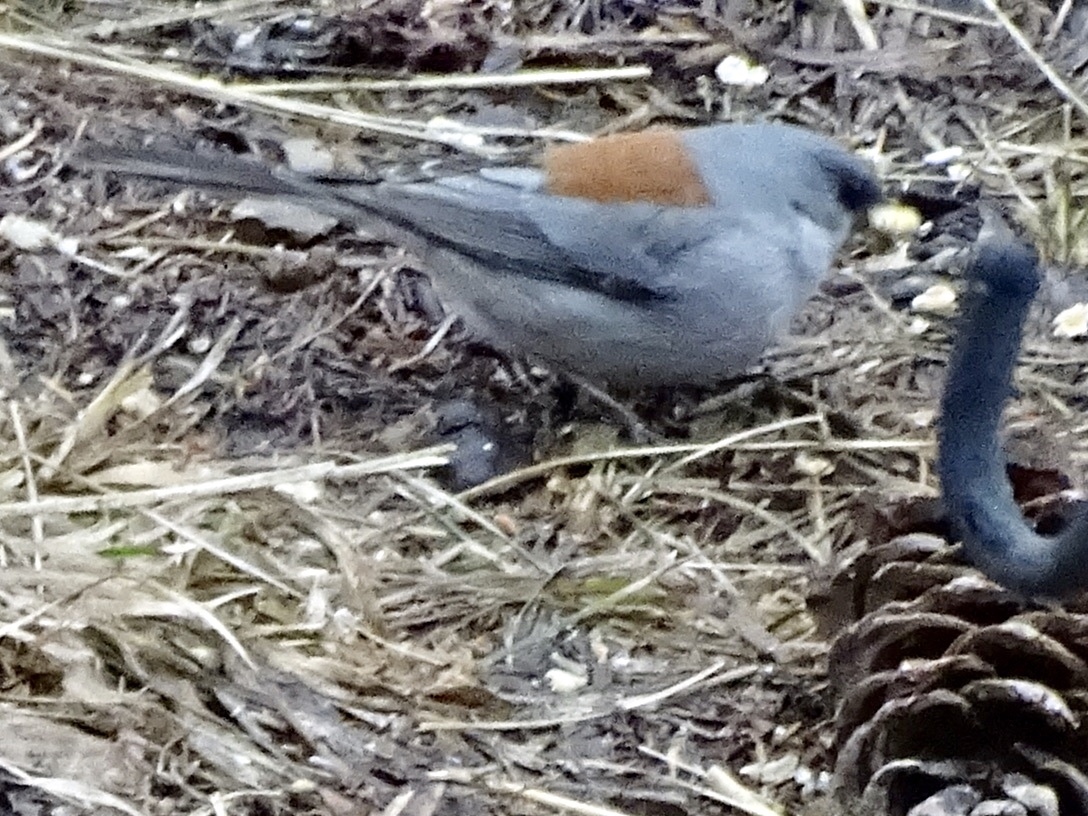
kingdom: Animalia
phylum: Chordata
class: Aves
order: Passeriformes
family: Passerellidae
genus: Junco
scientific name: Junco hyemalis
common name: Dark-eyed junco
